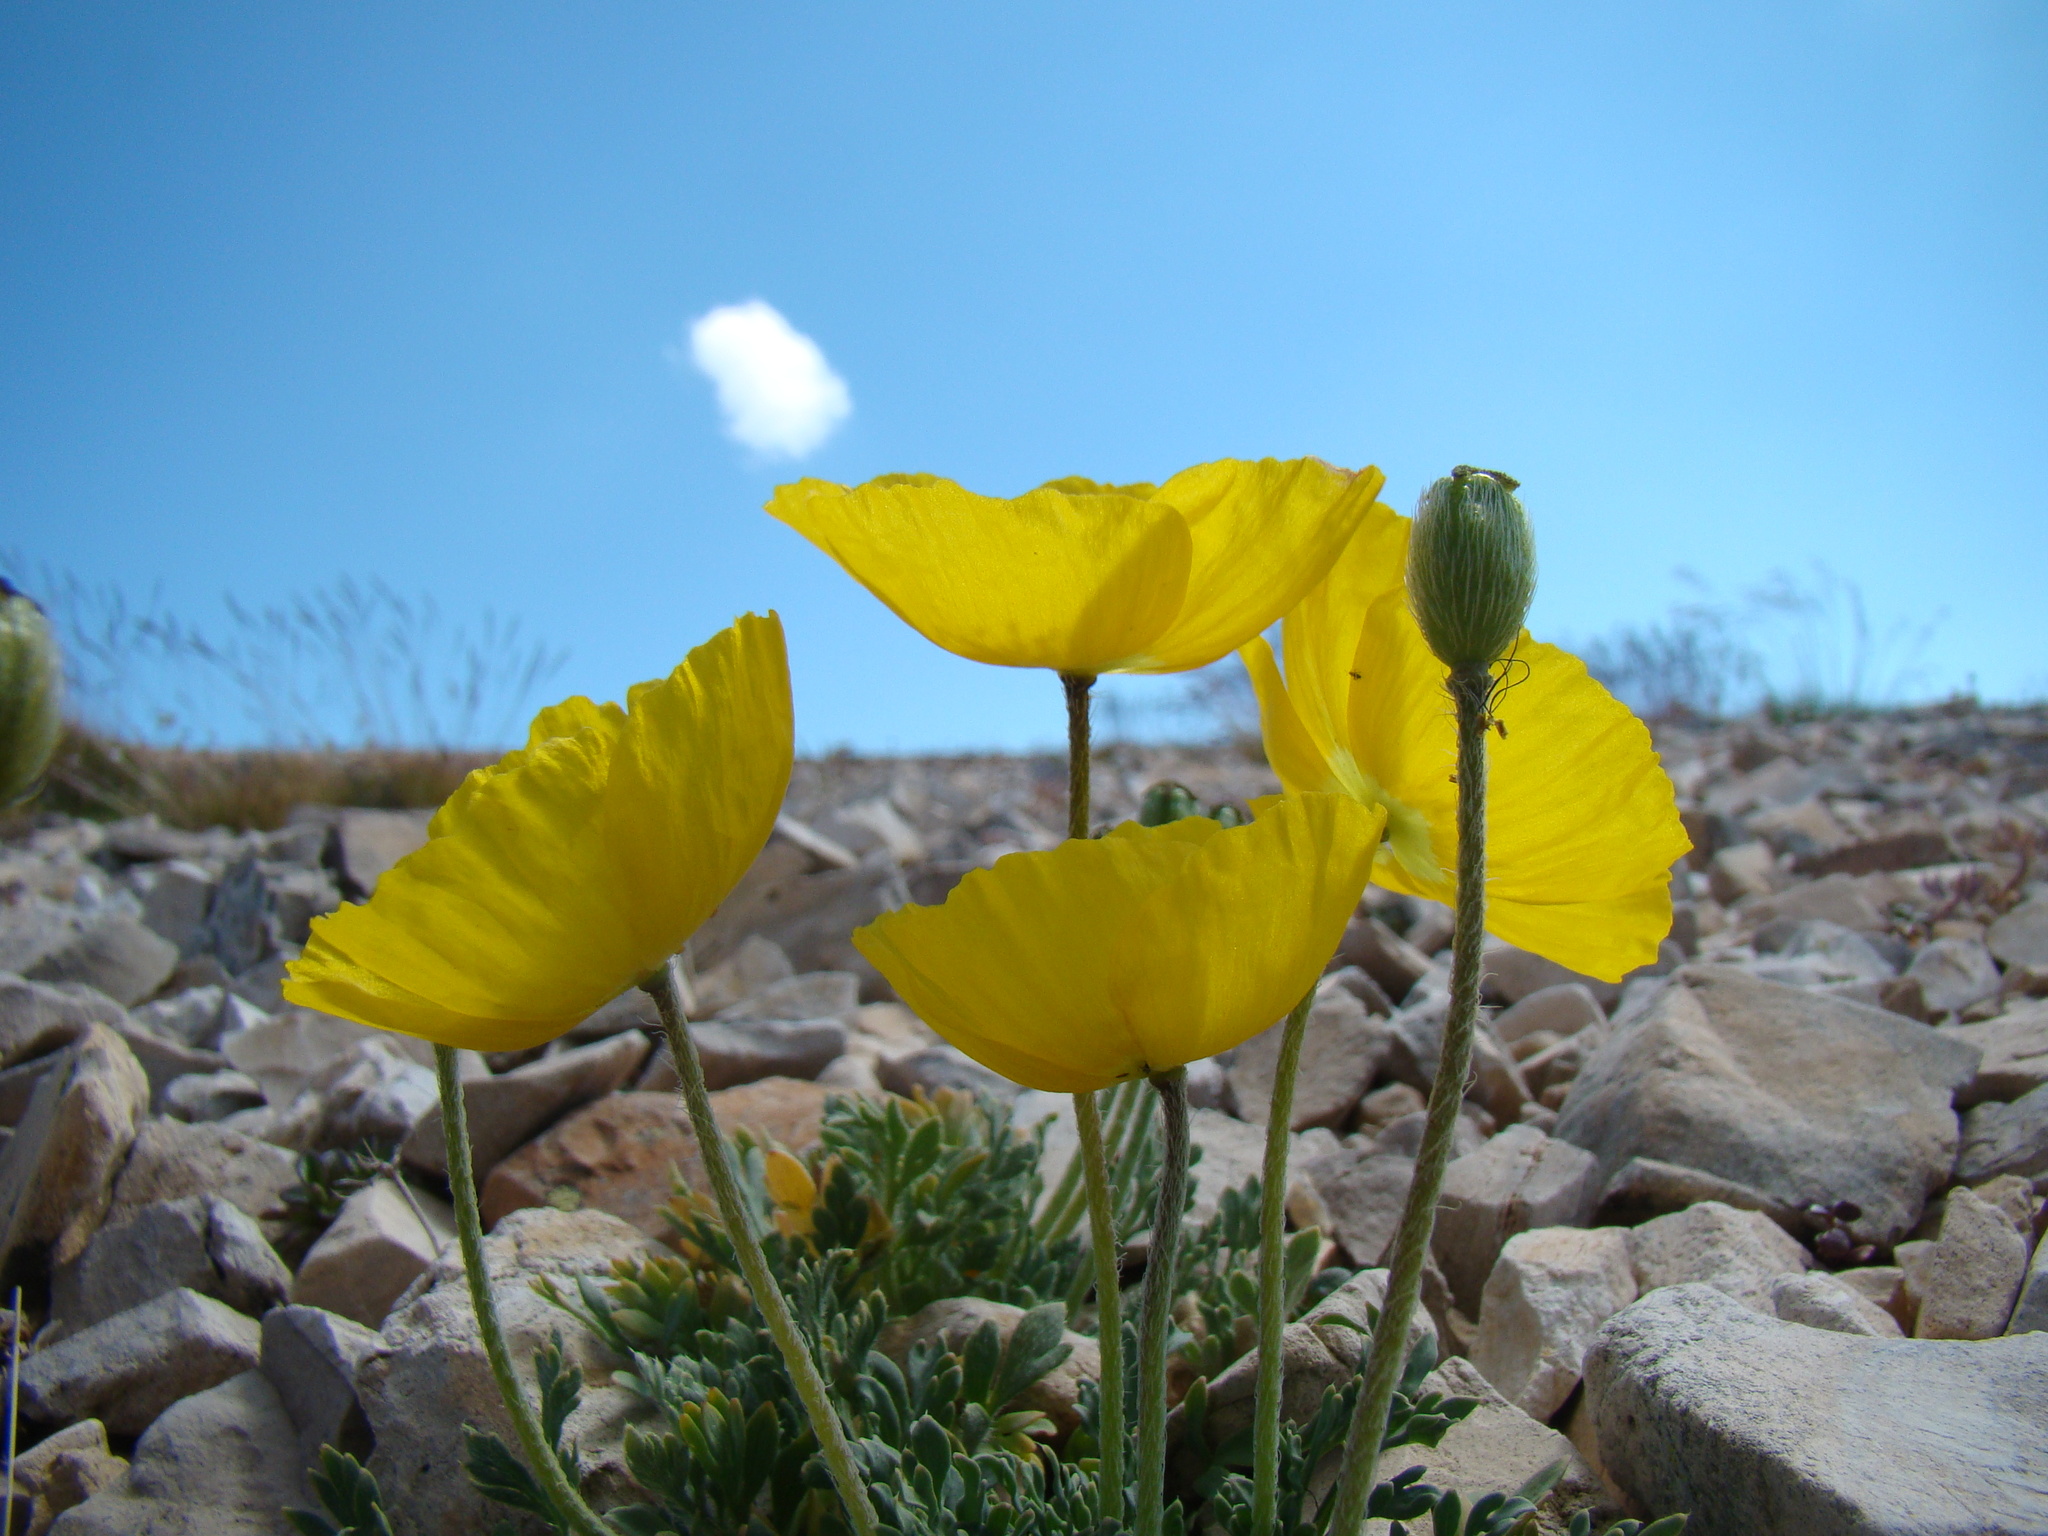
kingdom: Plantae
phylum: Tracheophyta
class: Magnoliopsida
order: Ranunculales
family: Papaveraceae
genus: Papaver
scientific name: Papaver alpinum
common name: Austrian poppy
